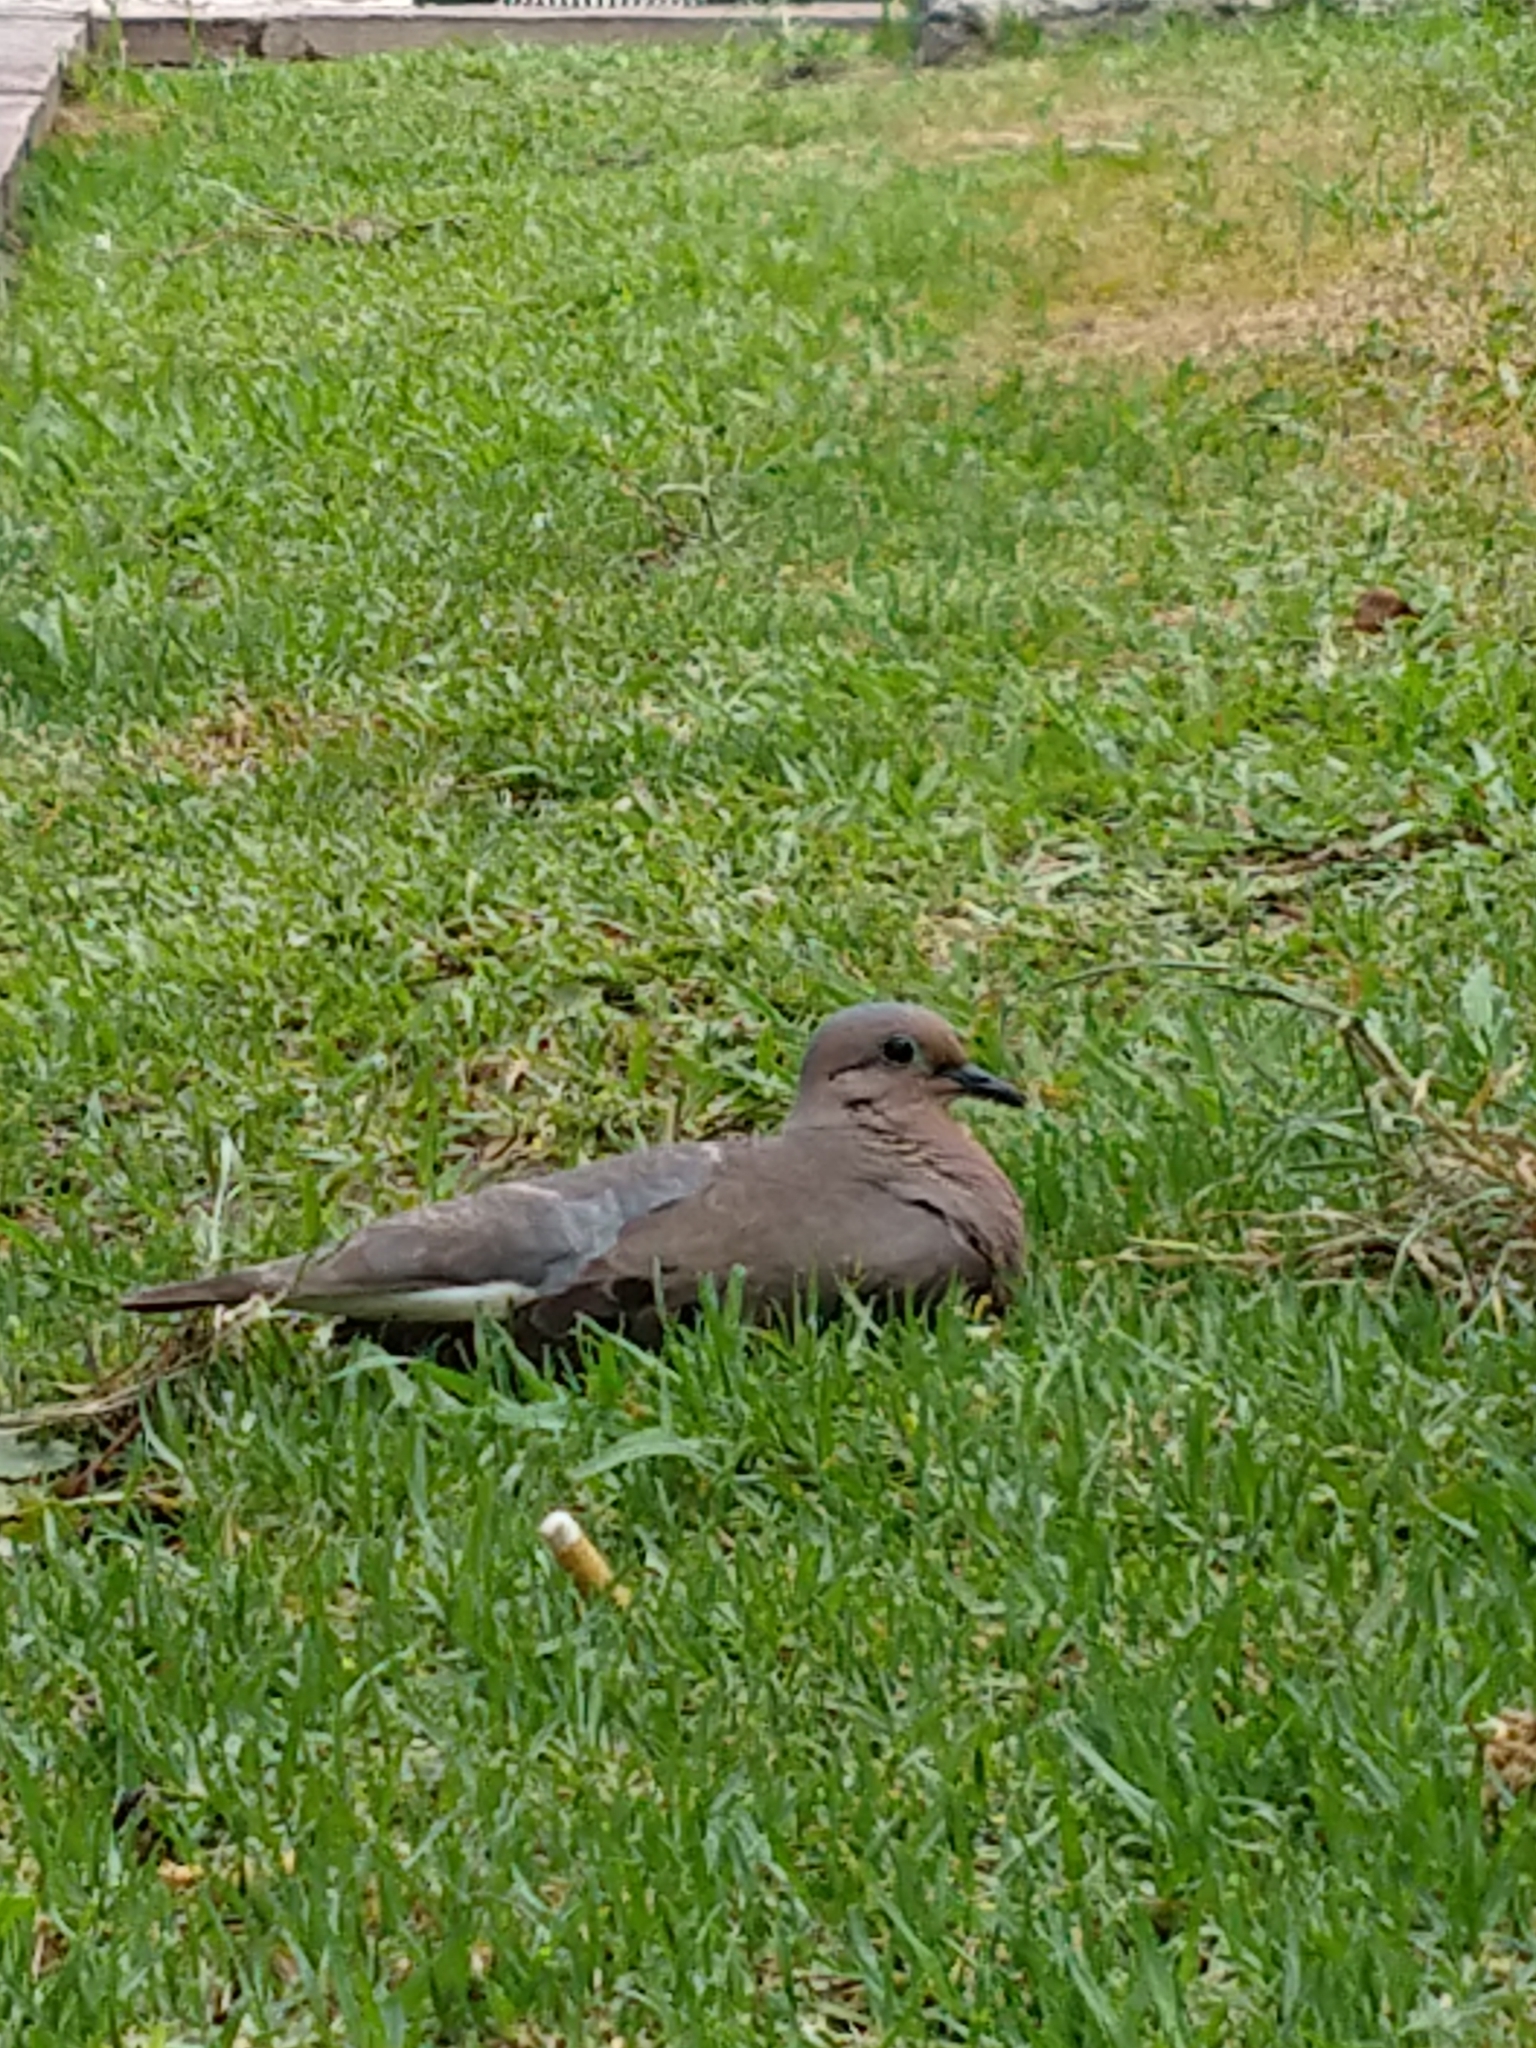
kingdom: Animalia
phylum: Chordata
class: Aves
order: Columbiformes
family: Columbidae
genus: Zenaida
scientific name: Zenaida auriculata
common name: Eared dove
